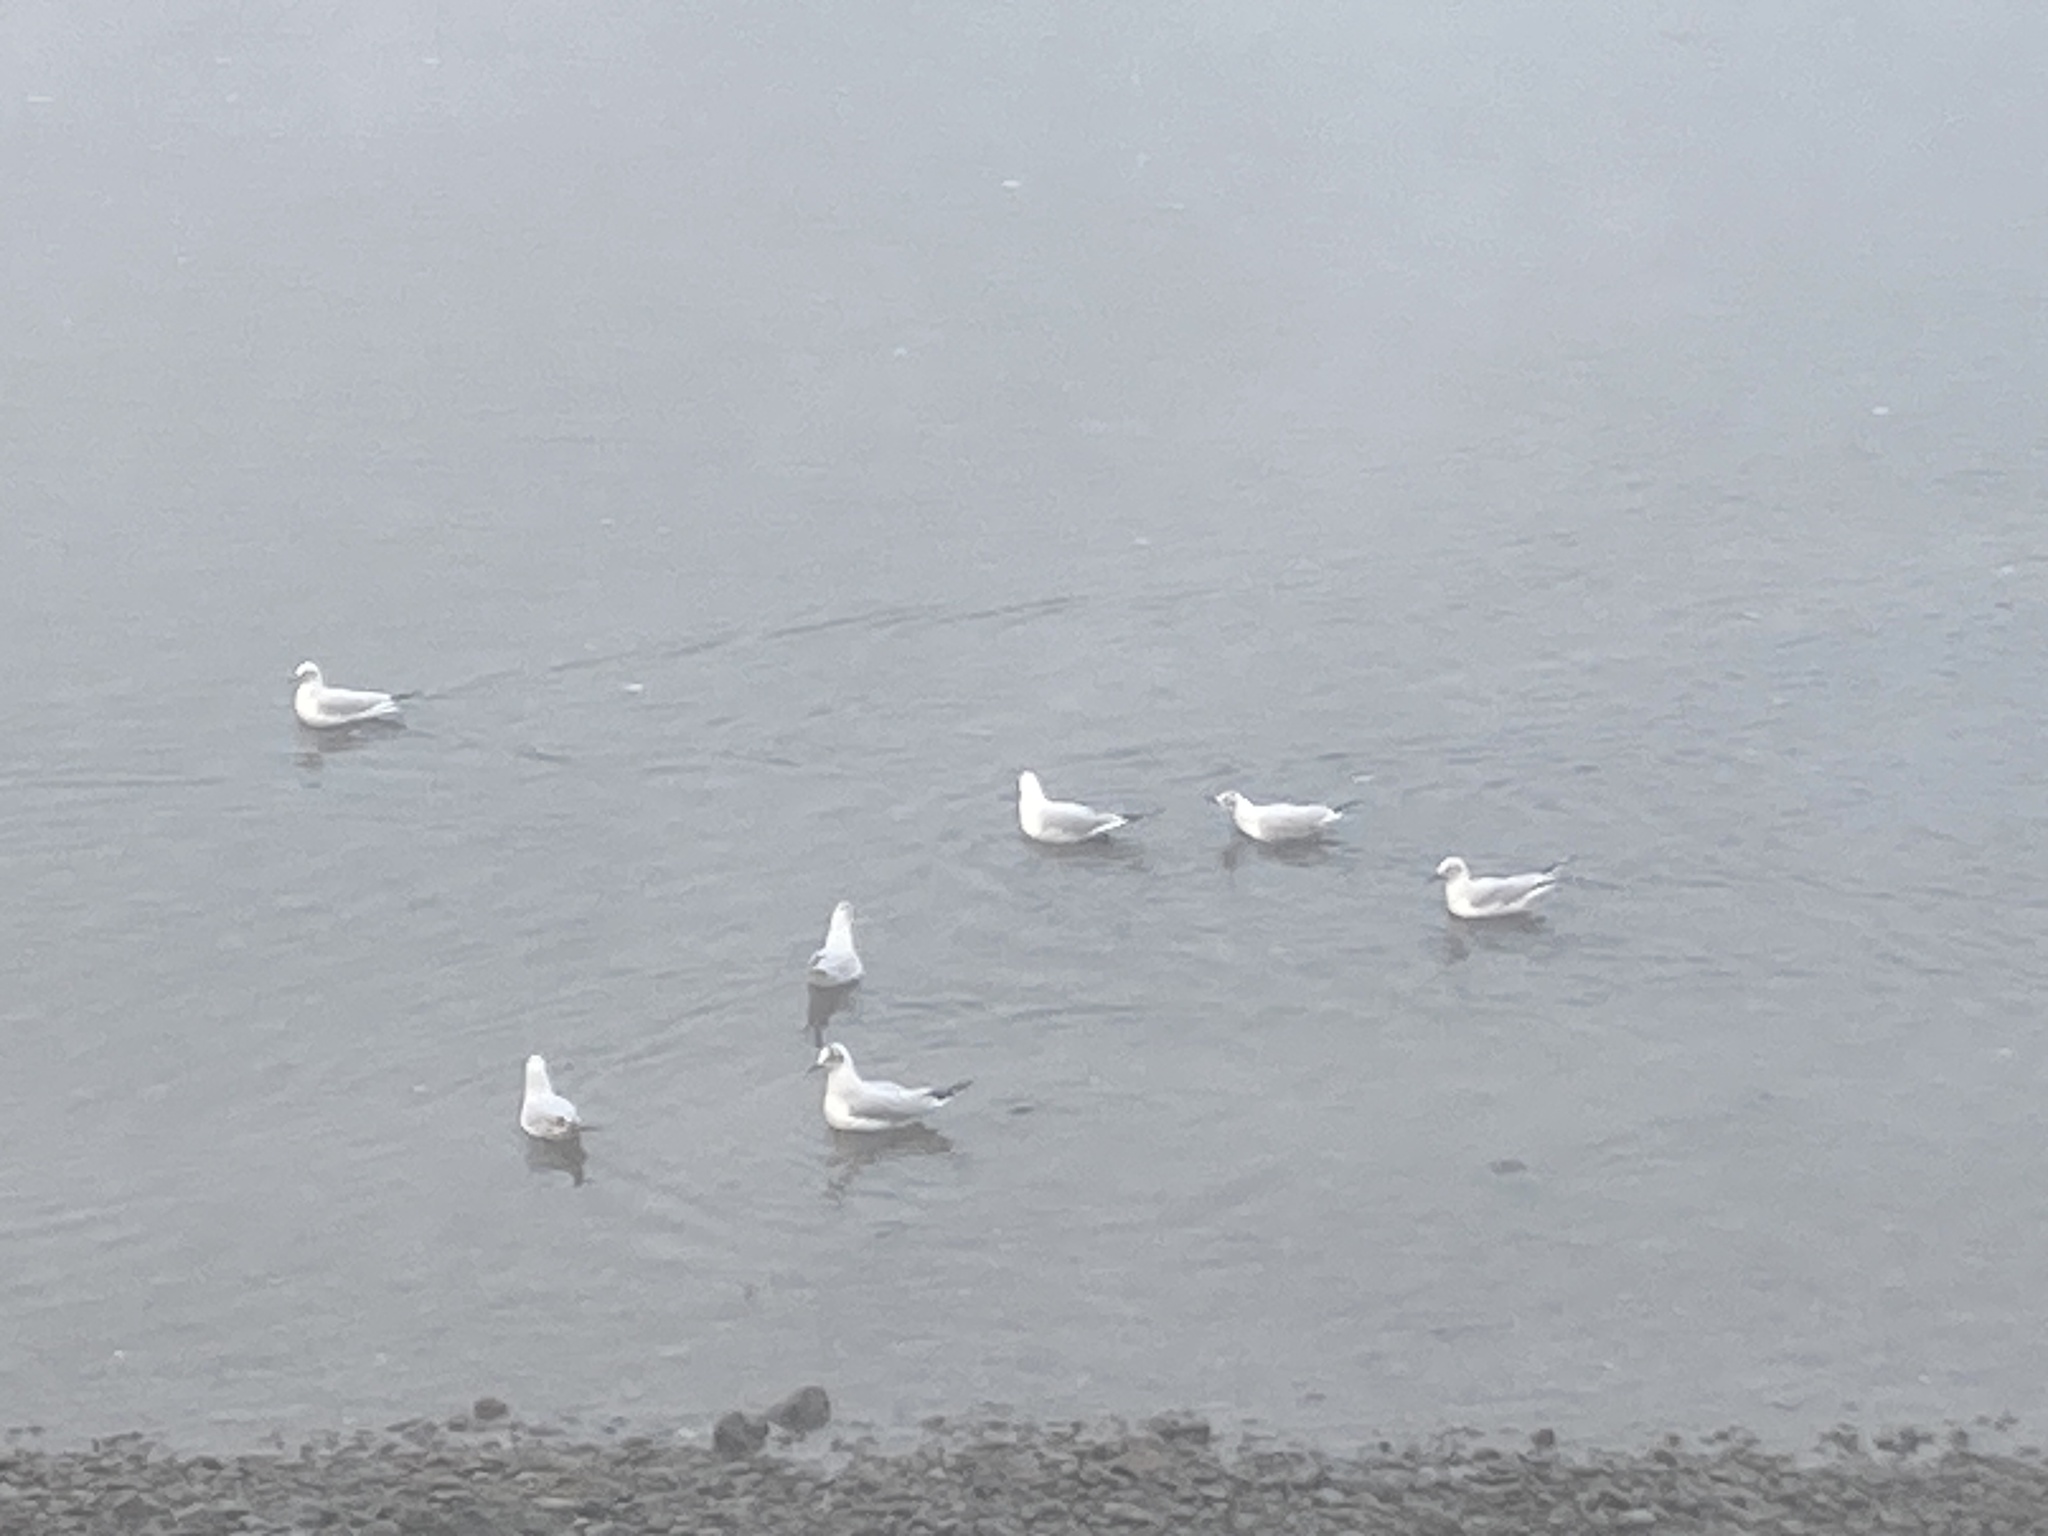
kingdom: Animalia
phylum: Chordata
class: Aves
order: Charadriiformes
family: Laridae
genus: Chroicocephalus
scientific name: Chroicocephalus ridibundus
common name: Black-headed gull
